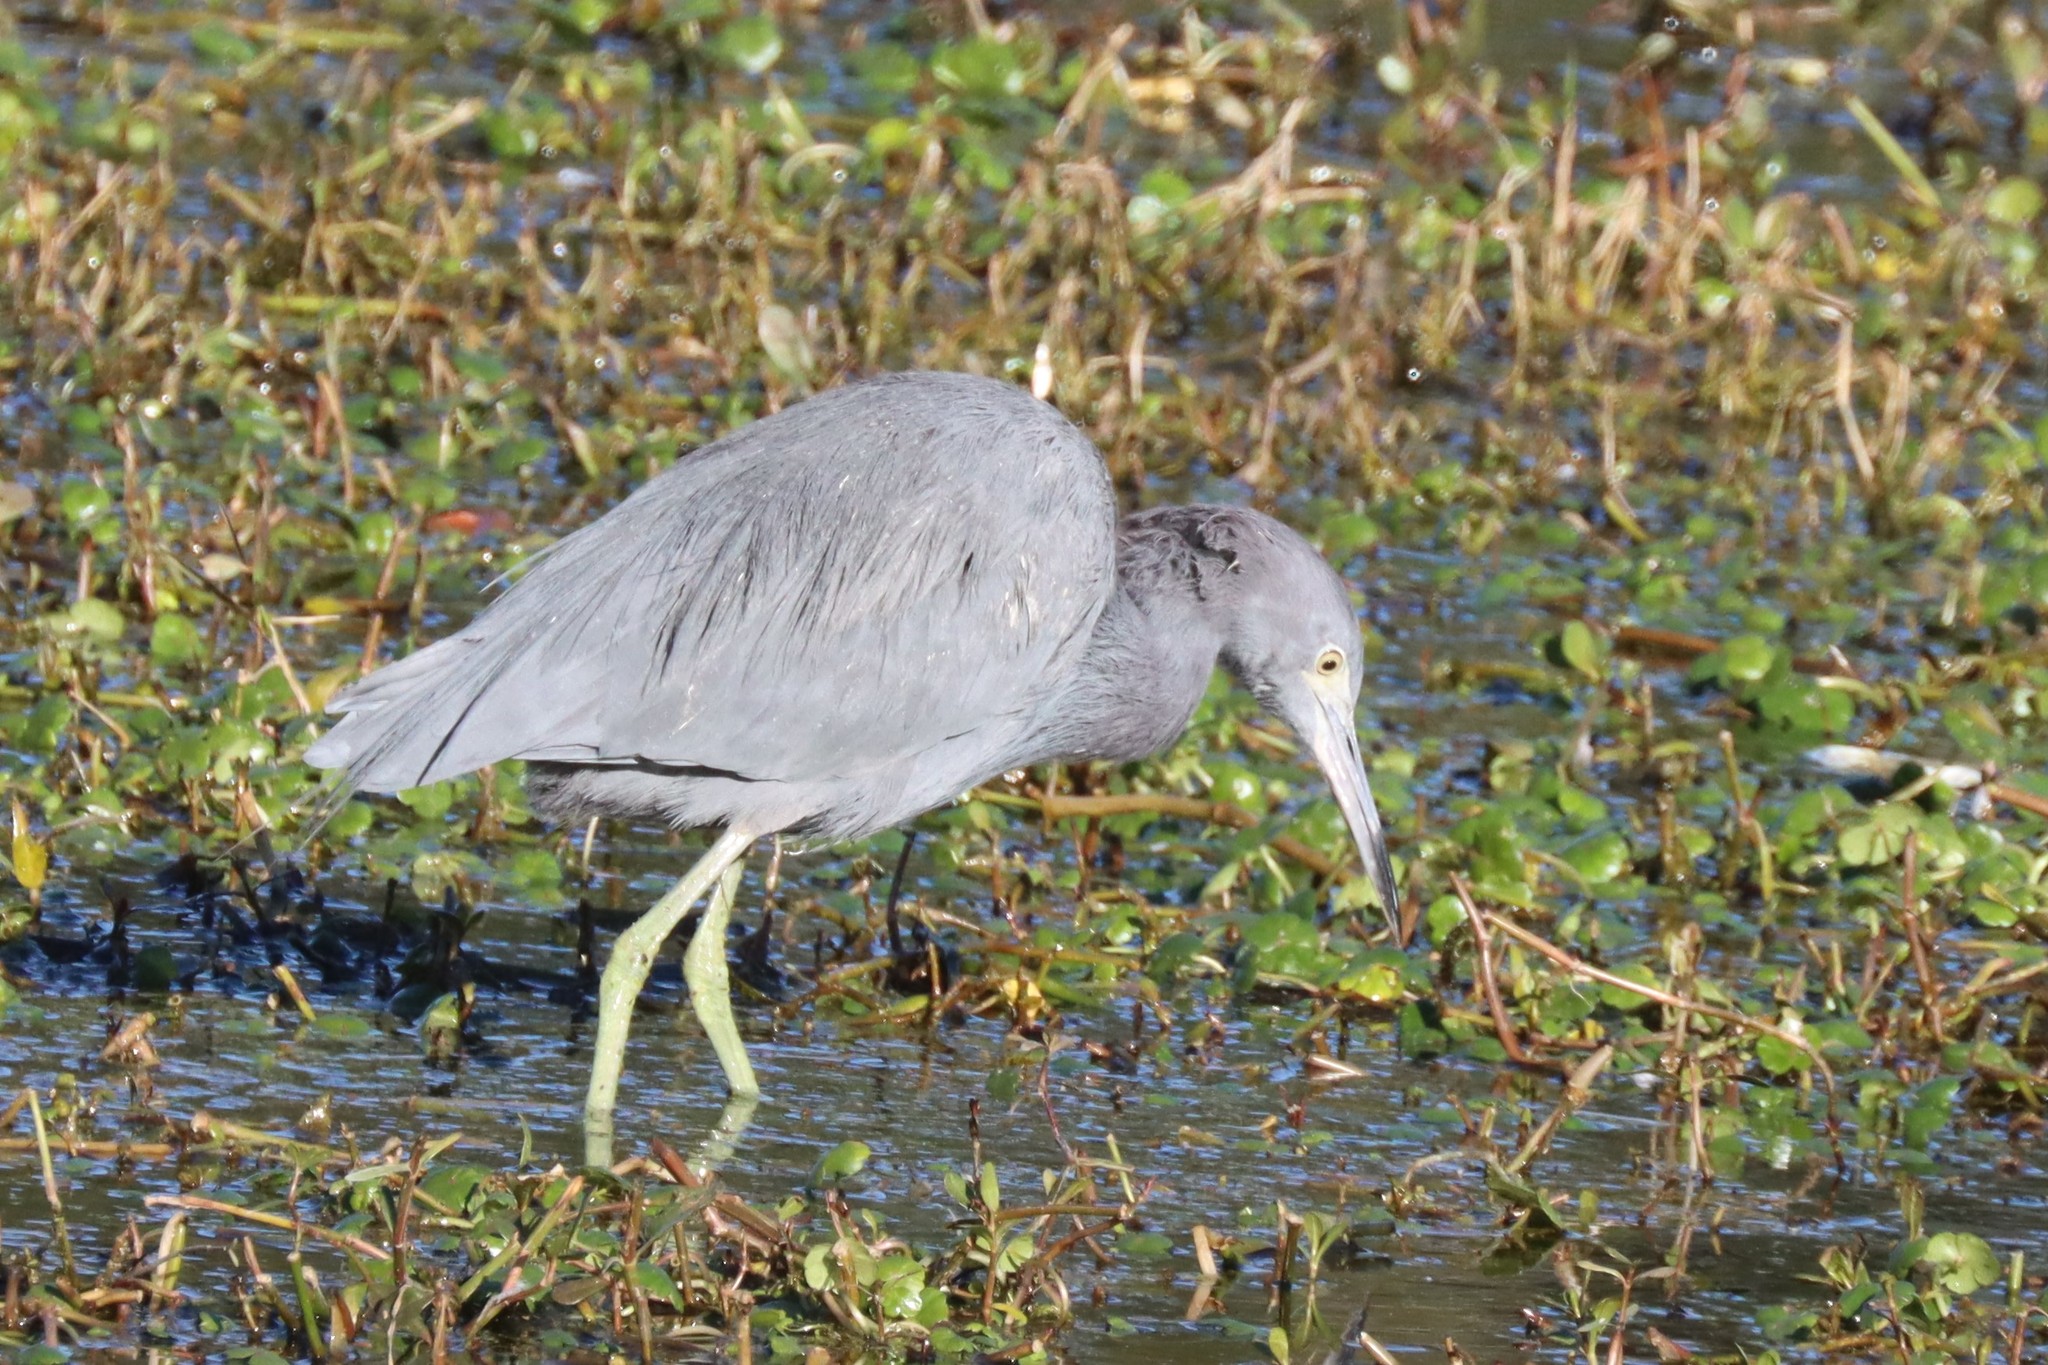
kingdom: Animalia
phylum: Chordata
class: Aves
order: Pelecaniformes
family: Ardeidae
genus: Egretta
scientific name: Egretta caerulea
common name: Little blue heron
